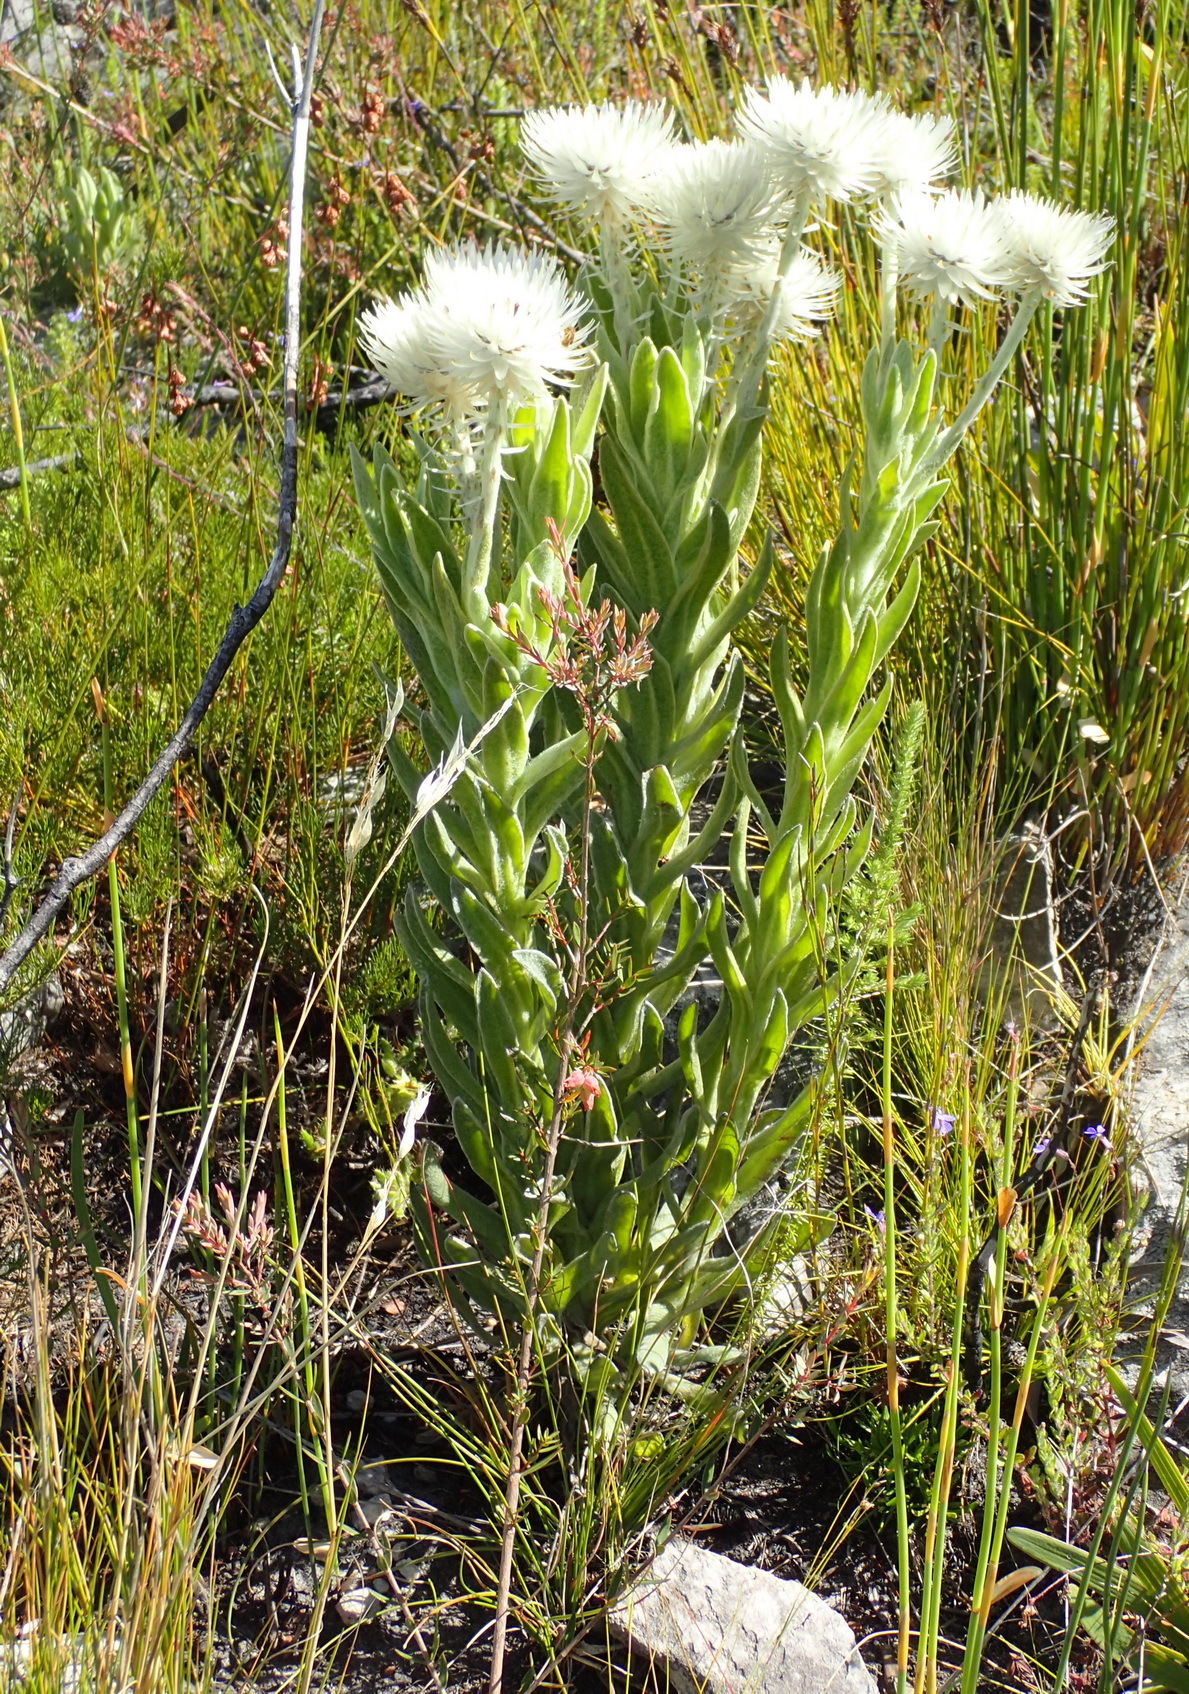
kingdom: Plantae
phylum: Tracheophyta
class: Magnoliopsida
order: Asterales
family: Asteraceae
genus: Syncarpha
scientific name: Syncarpha vestita
